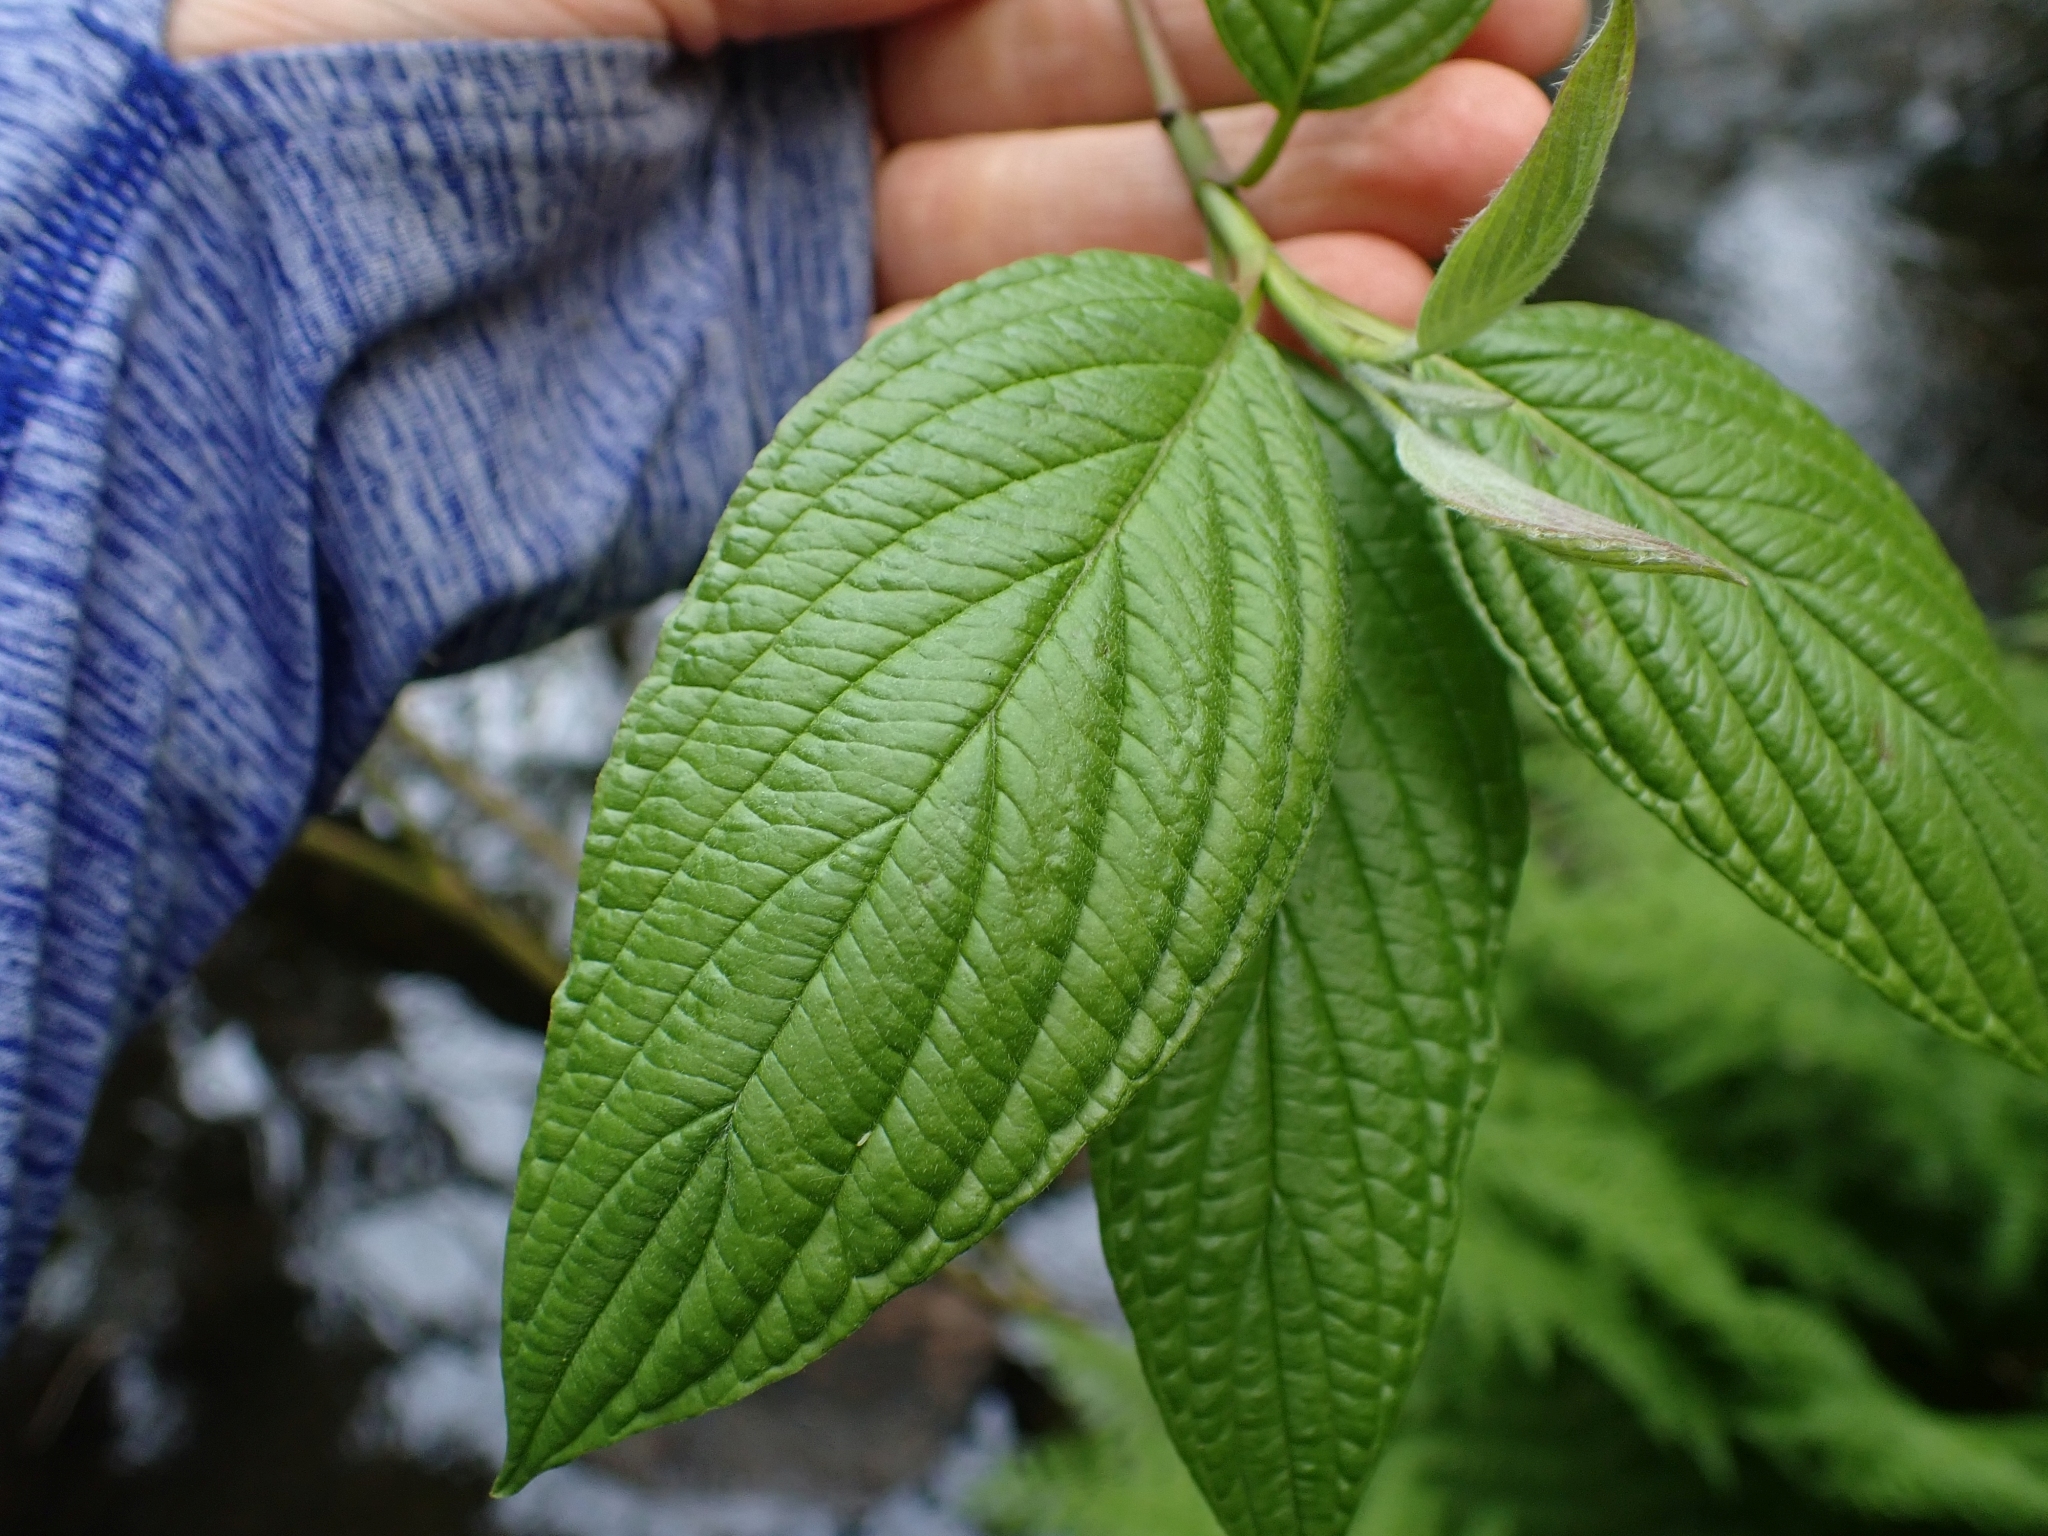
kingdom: Plantae
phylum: Tracheophyta
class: Magnoliopsida
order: Cornales
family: Cornaceae
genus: Cornus
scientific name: Cornus sericea
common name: Red-osier dogwood
